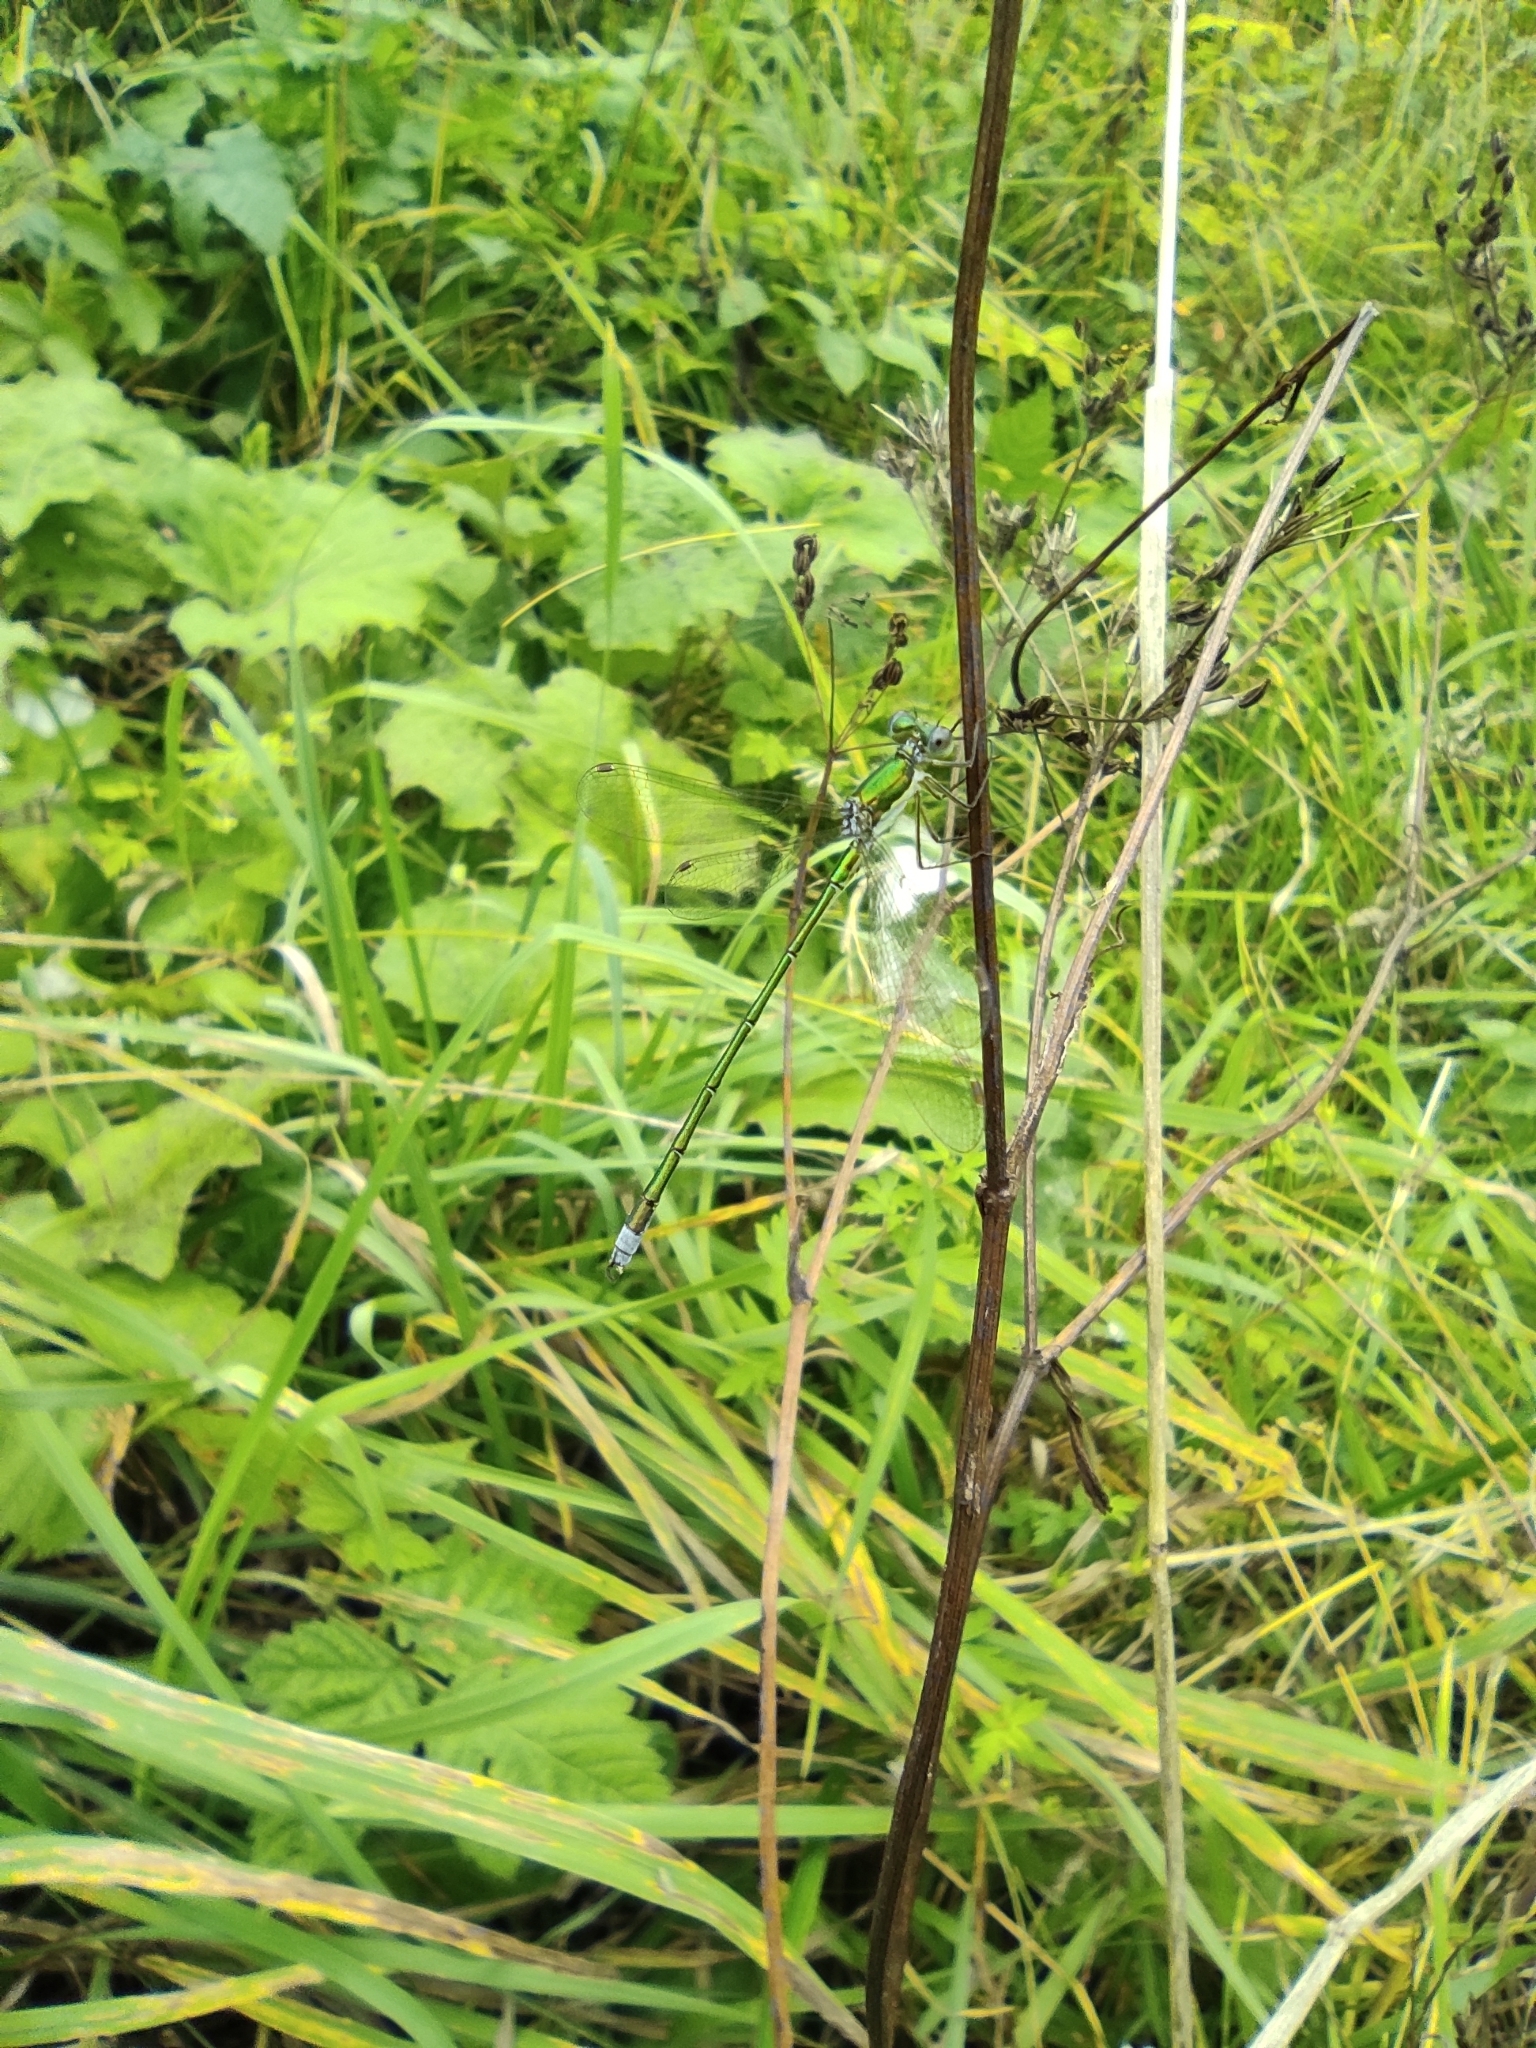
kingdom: Animalia
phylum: Arthropoda
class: Insecta
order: Odonata
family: Lestidae
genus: Lestes
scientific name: Lestes virens
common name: Small emerald spreadwing
